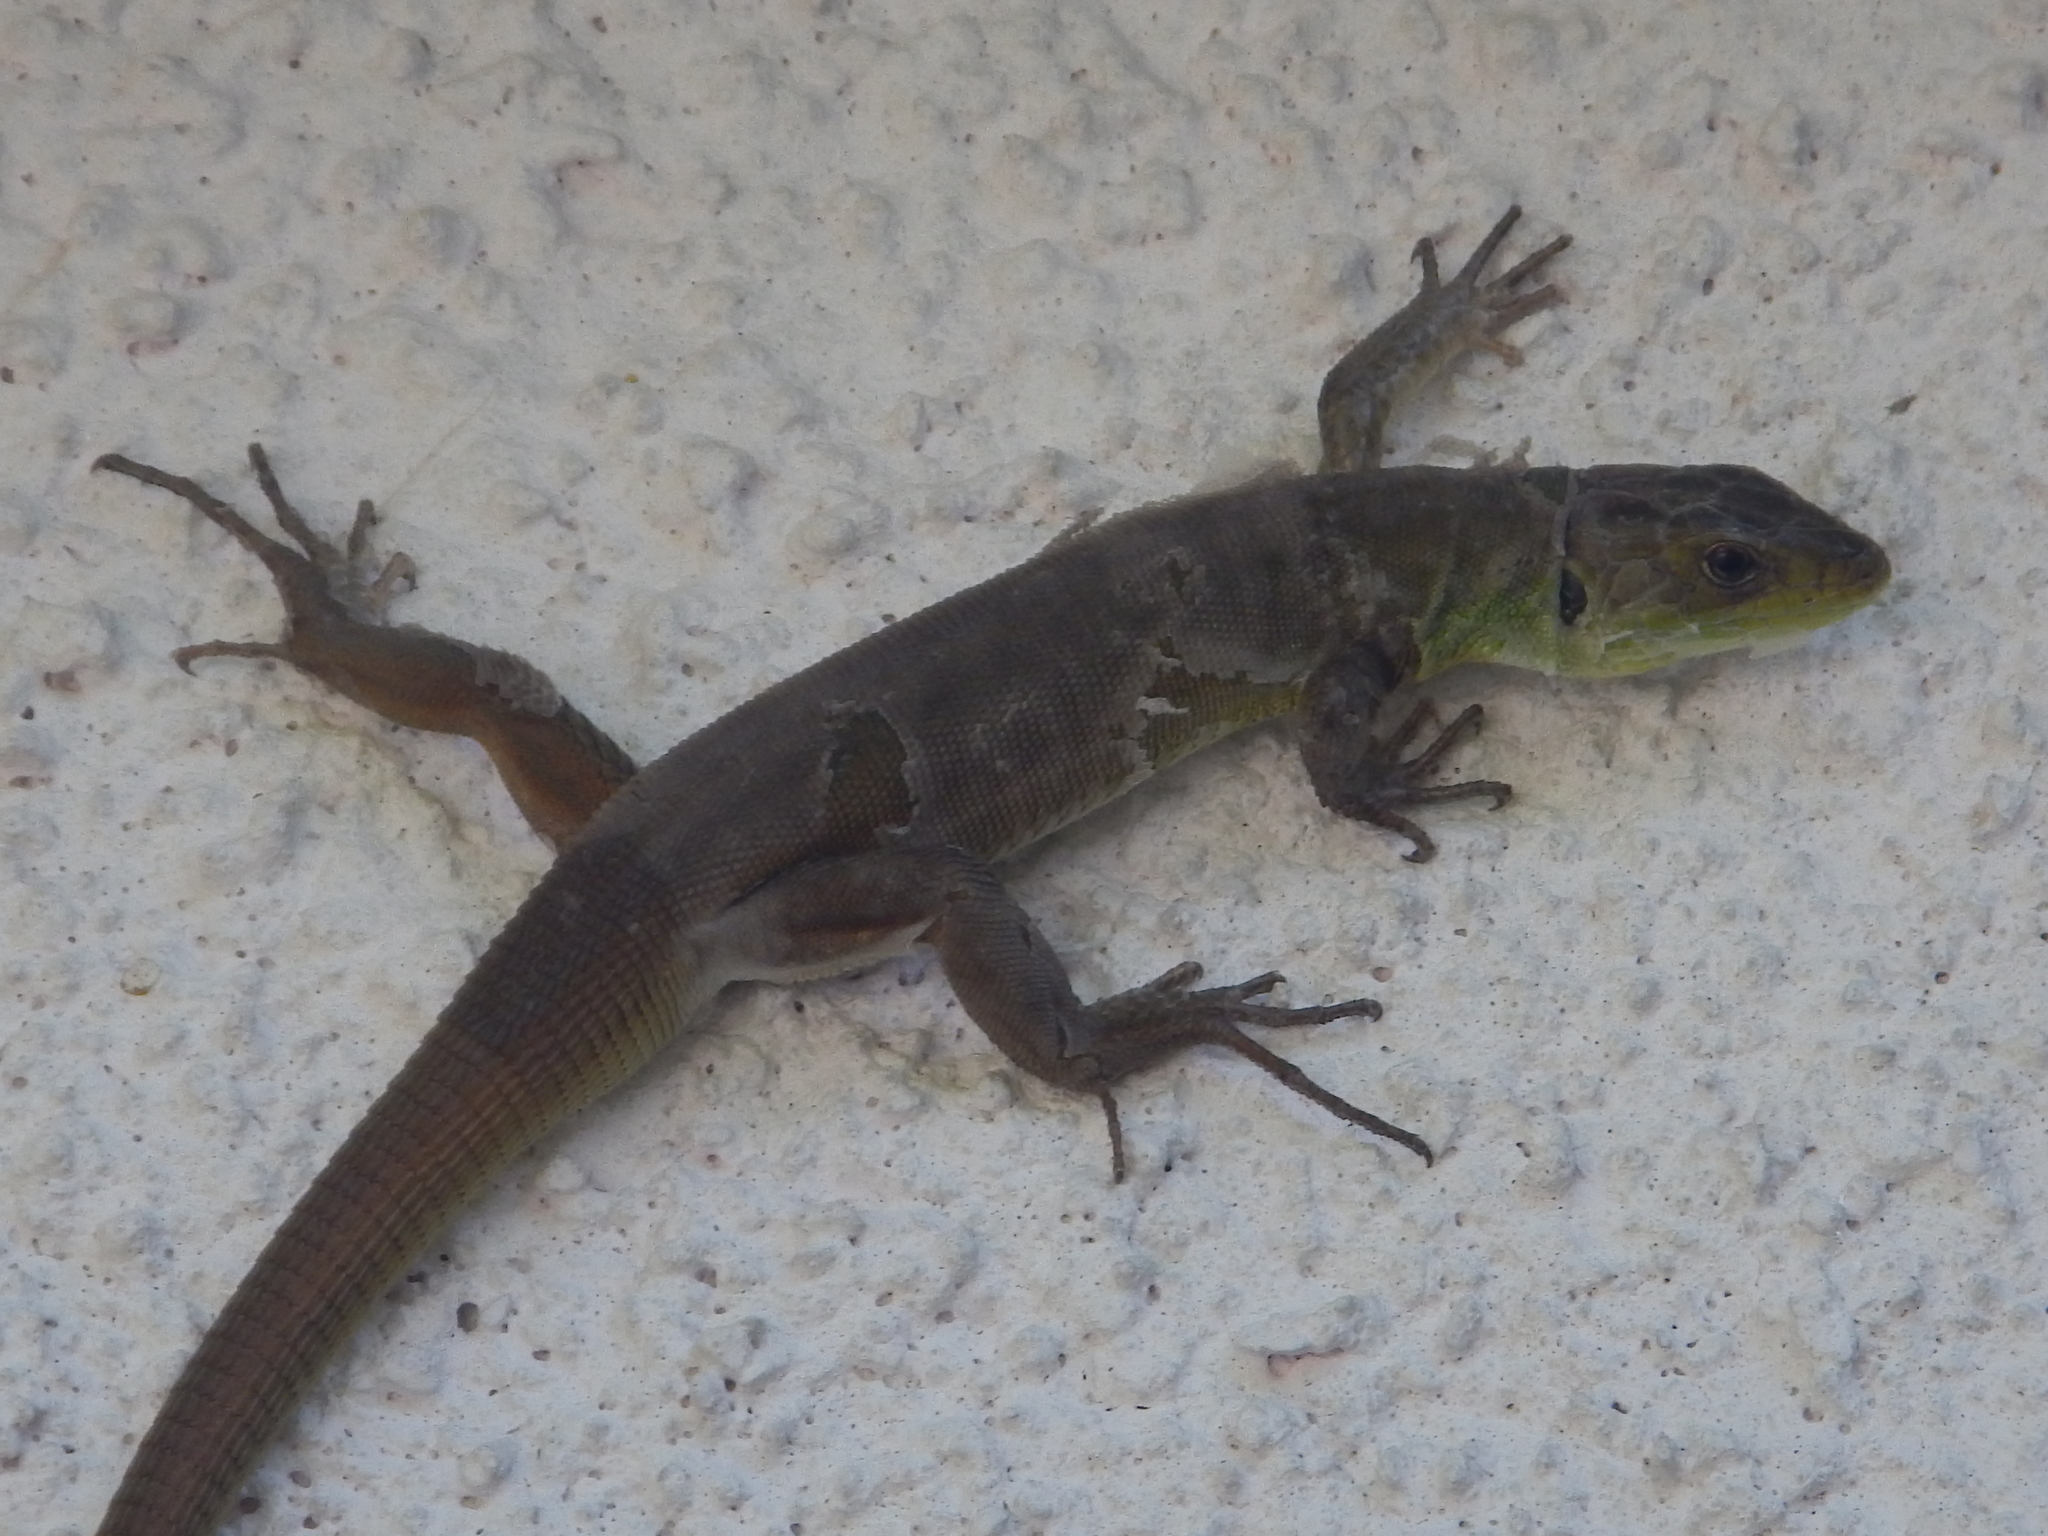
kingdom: Animalia
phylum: Chordata
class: Squamata
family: Lacertidae
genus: Lacerta
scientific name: Lacerta trilineata
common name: Balkan green lizard
